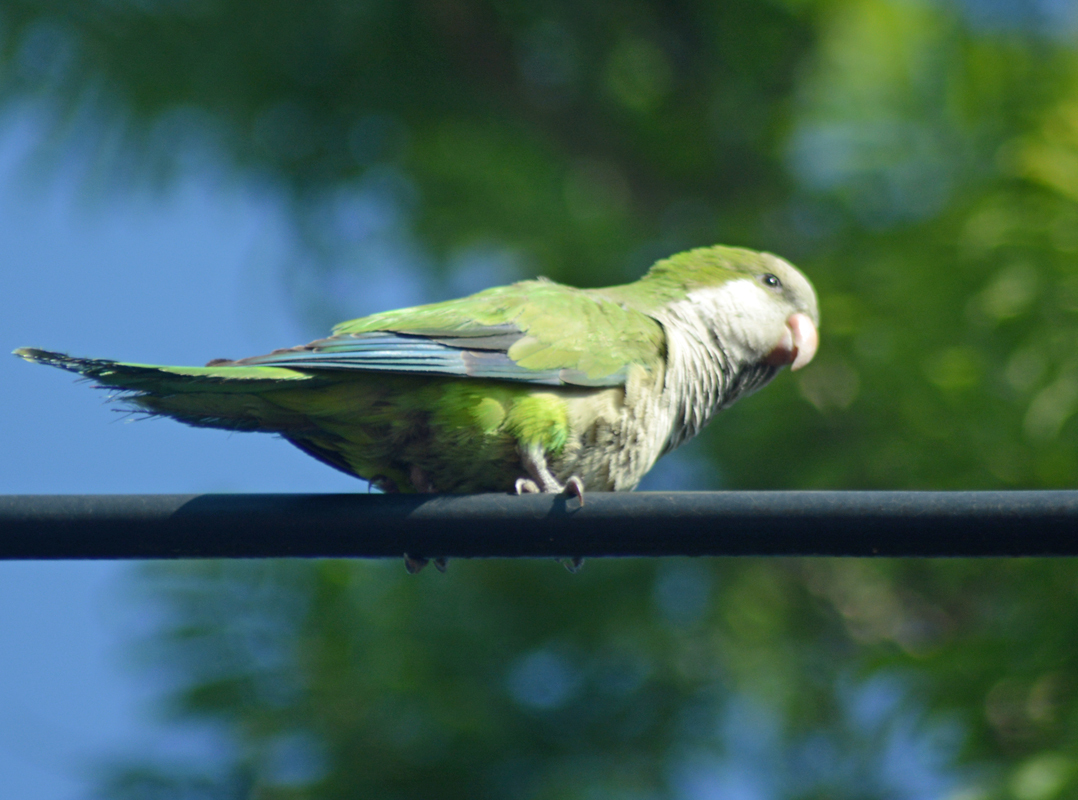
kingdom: Animalia
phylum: Chordata
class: Aves
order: Psittaciformes
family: Psittacidae
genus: Myiopsitta
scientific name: Myiopsitta monachus
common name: Monk parakeet
